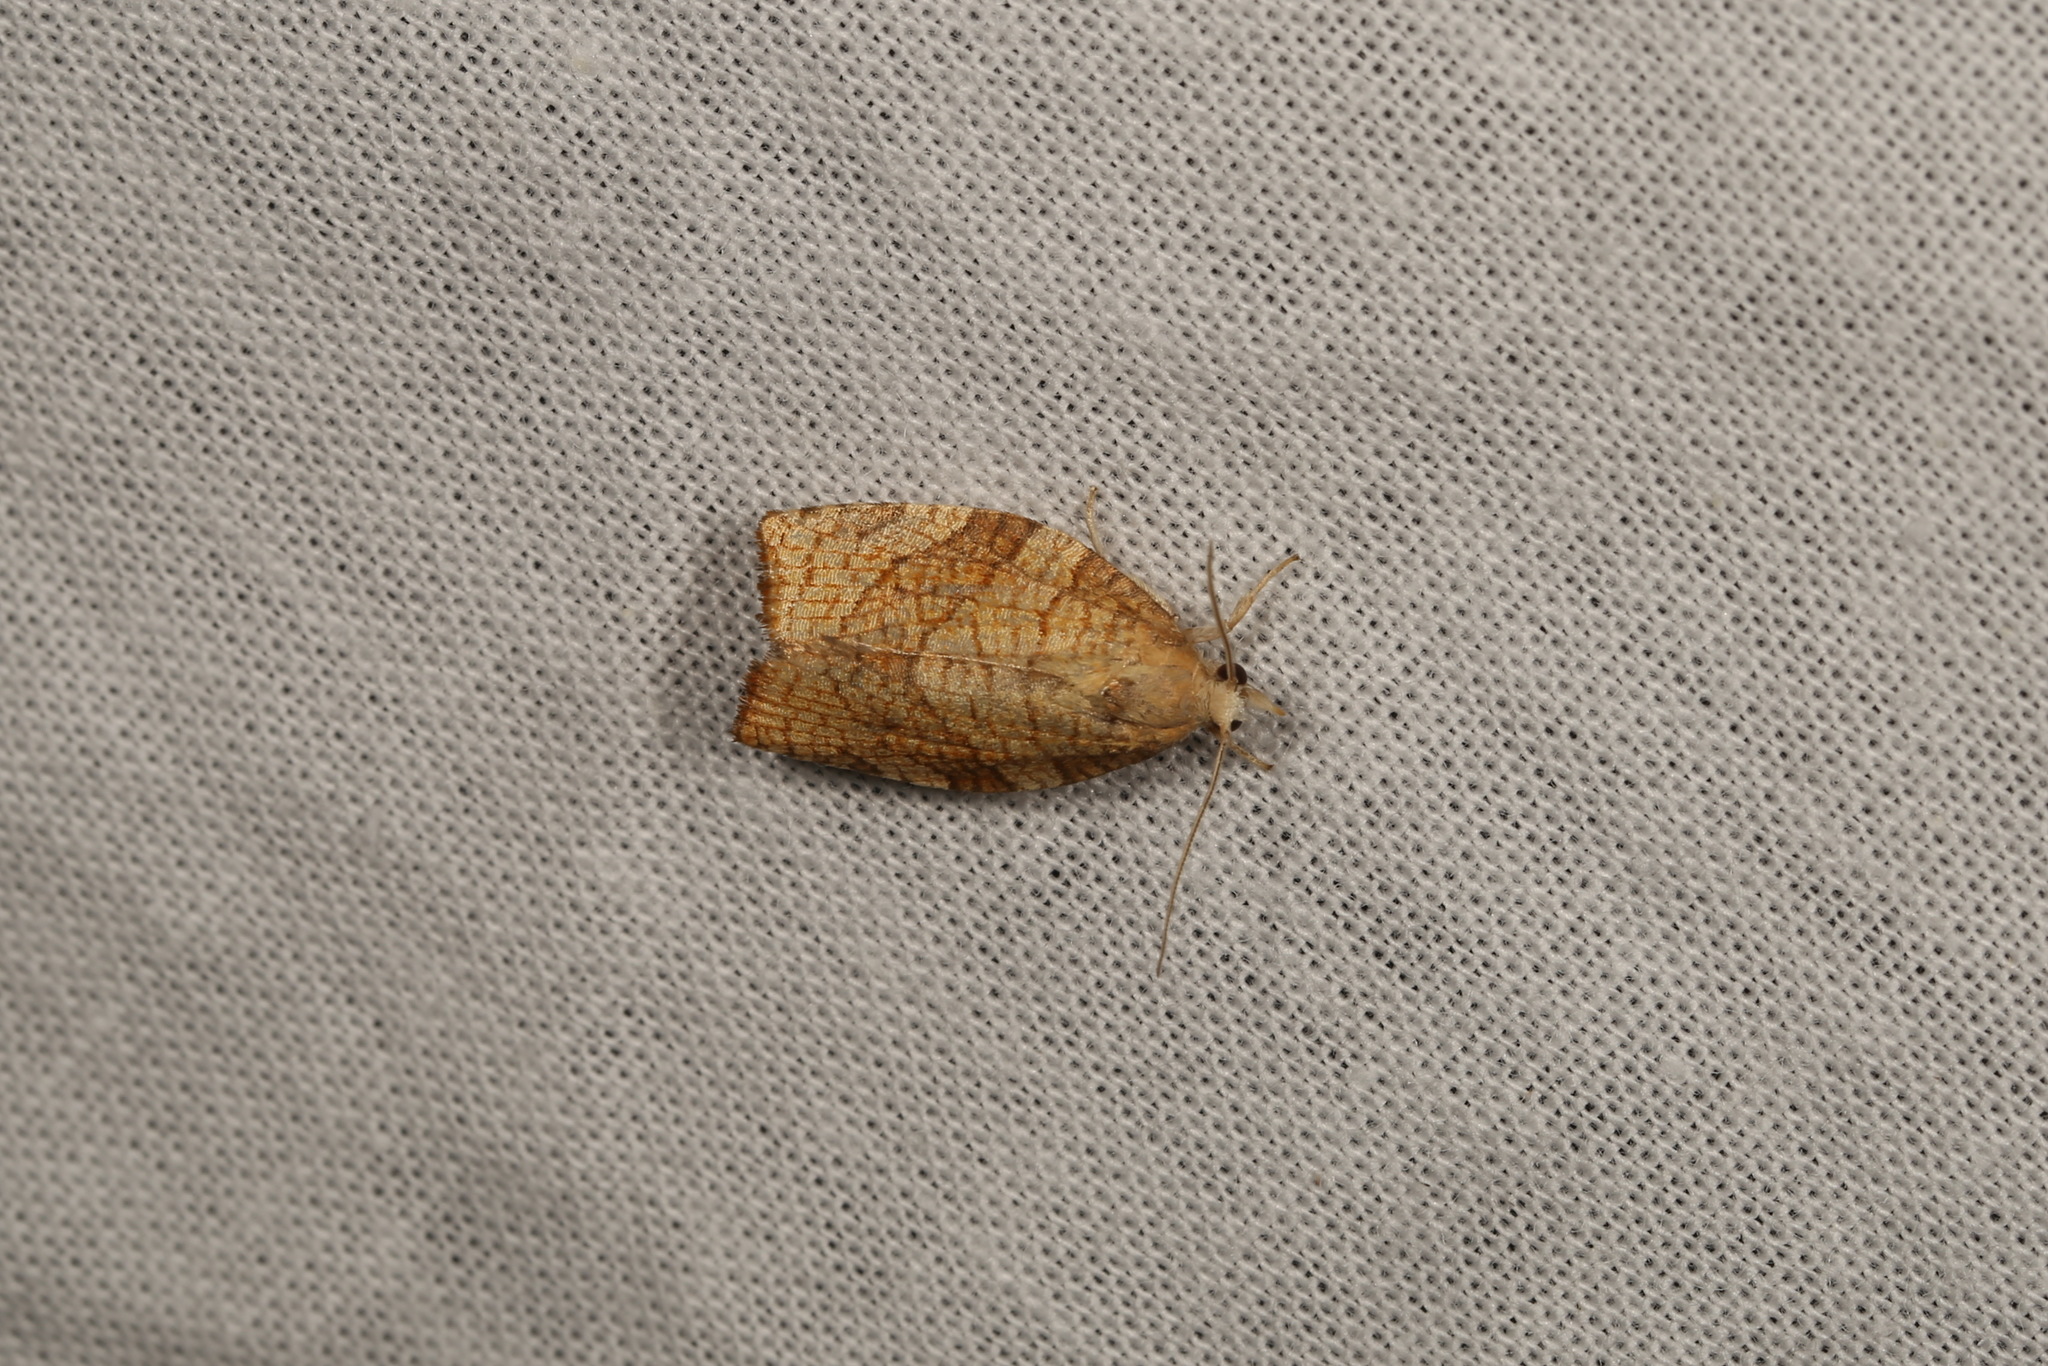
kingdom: Animalia
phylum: Arthropoda
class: Insecta
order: Lepidoptera
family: Tortricidae
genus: Pandemis
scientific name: Pandemis corylana
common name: Chequered fruit-tree tortrix
